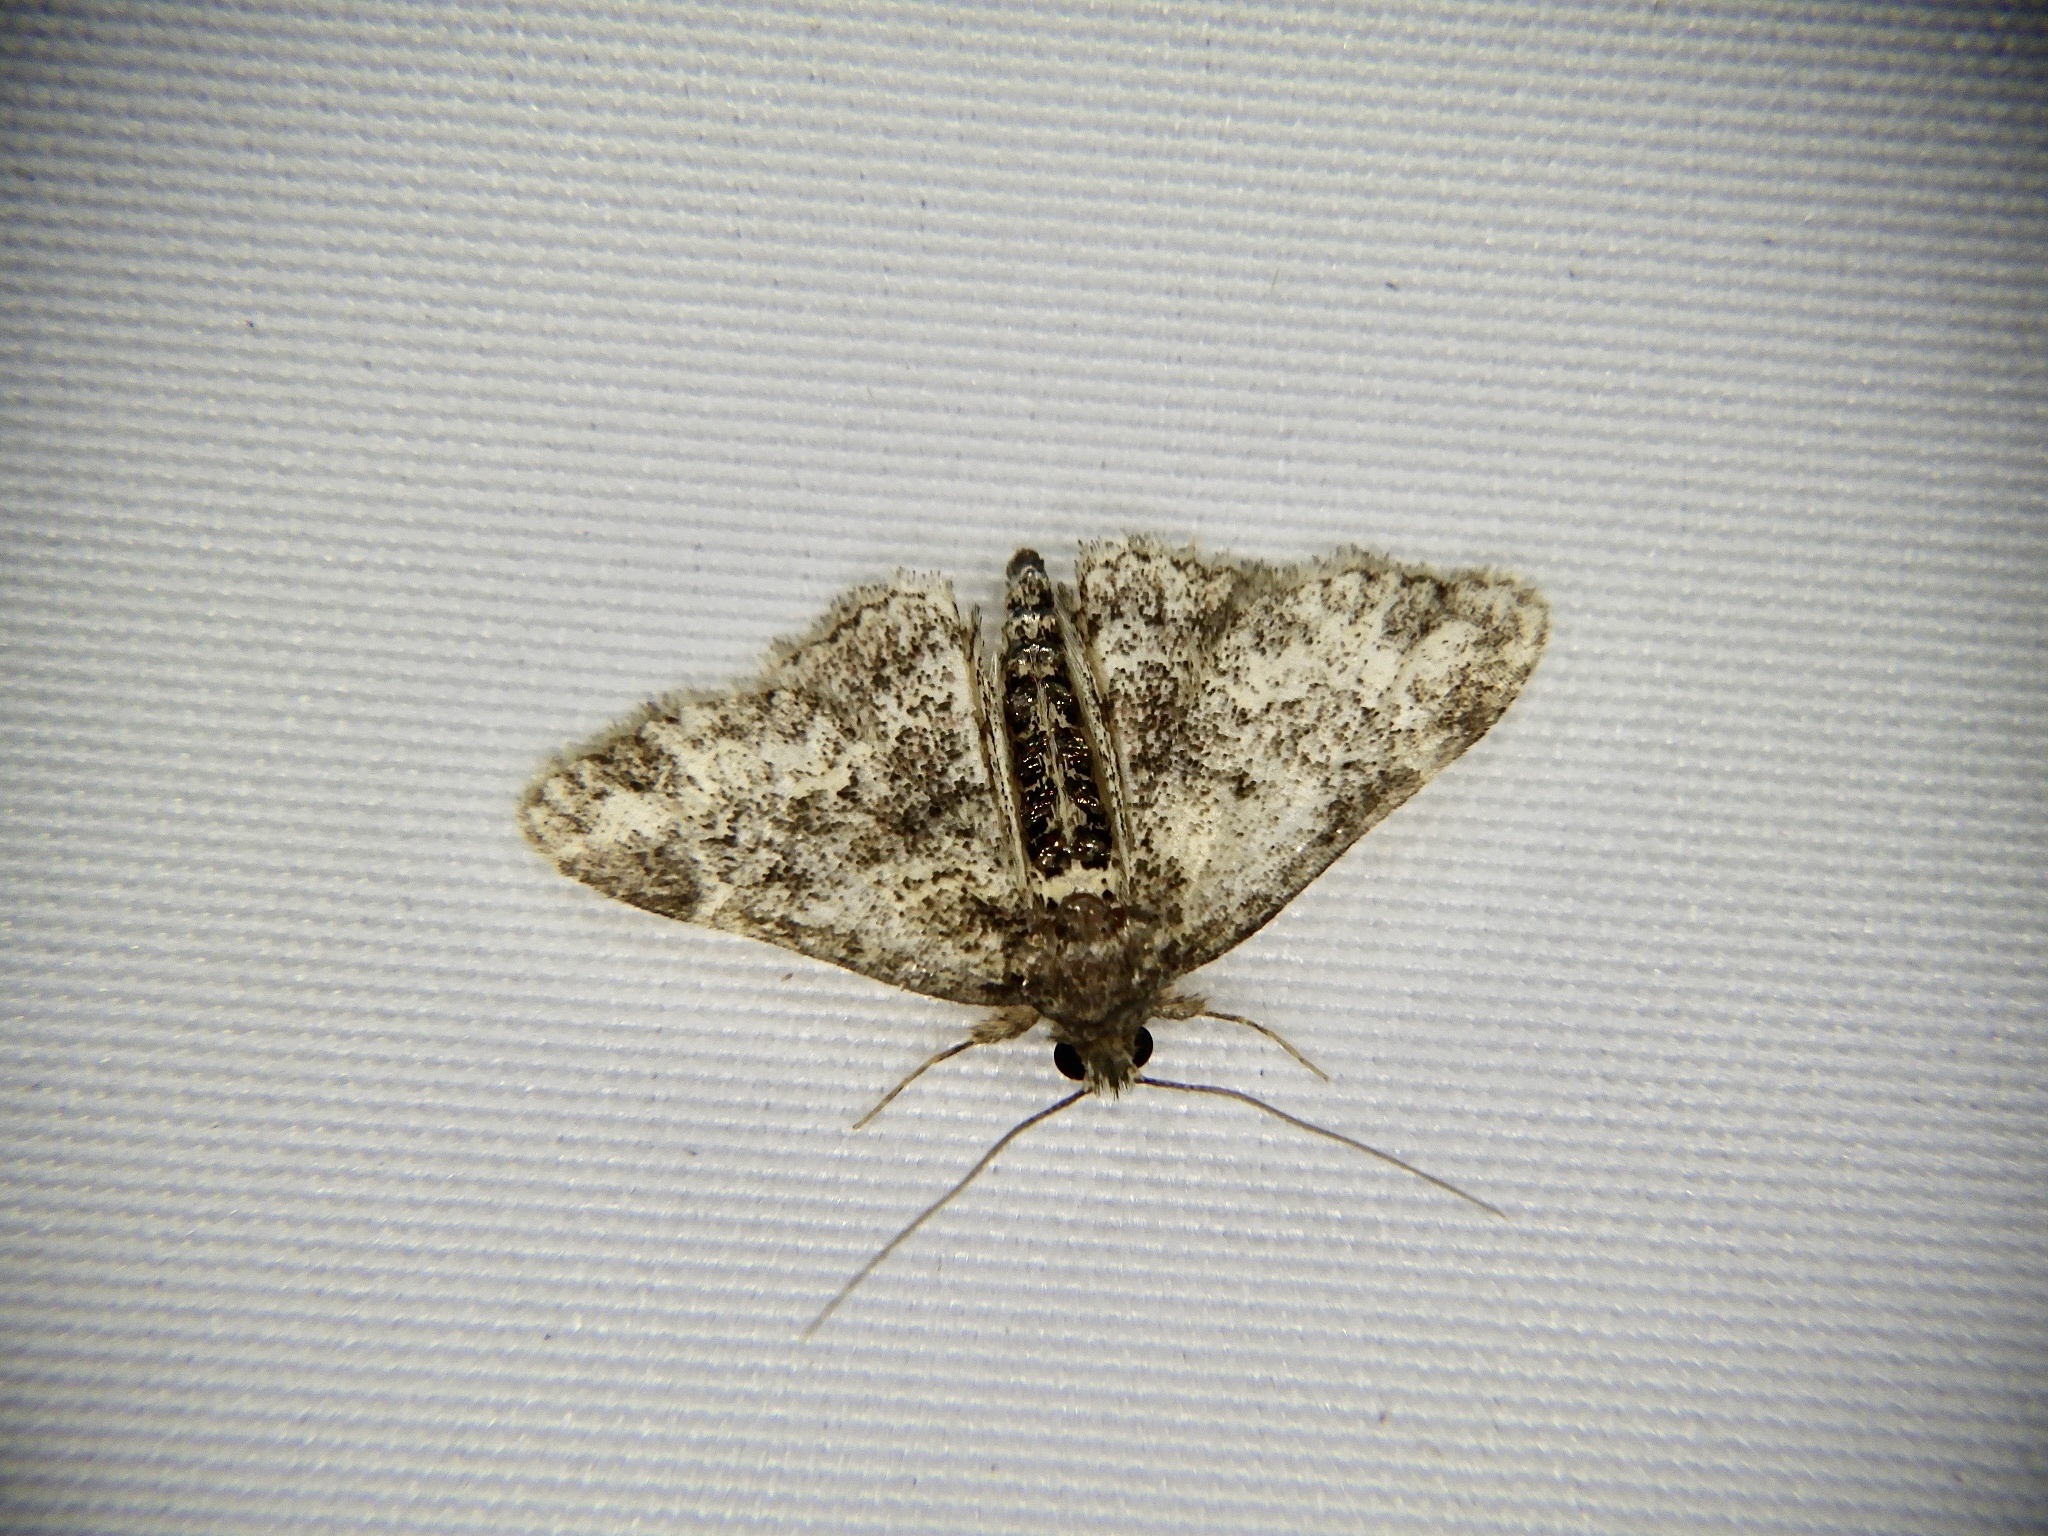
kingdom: Animalia
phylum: Arthropoda
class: Insecta
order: Lepidoptera
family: Erebidae
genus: Paragona
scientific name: Paragona inchoata
